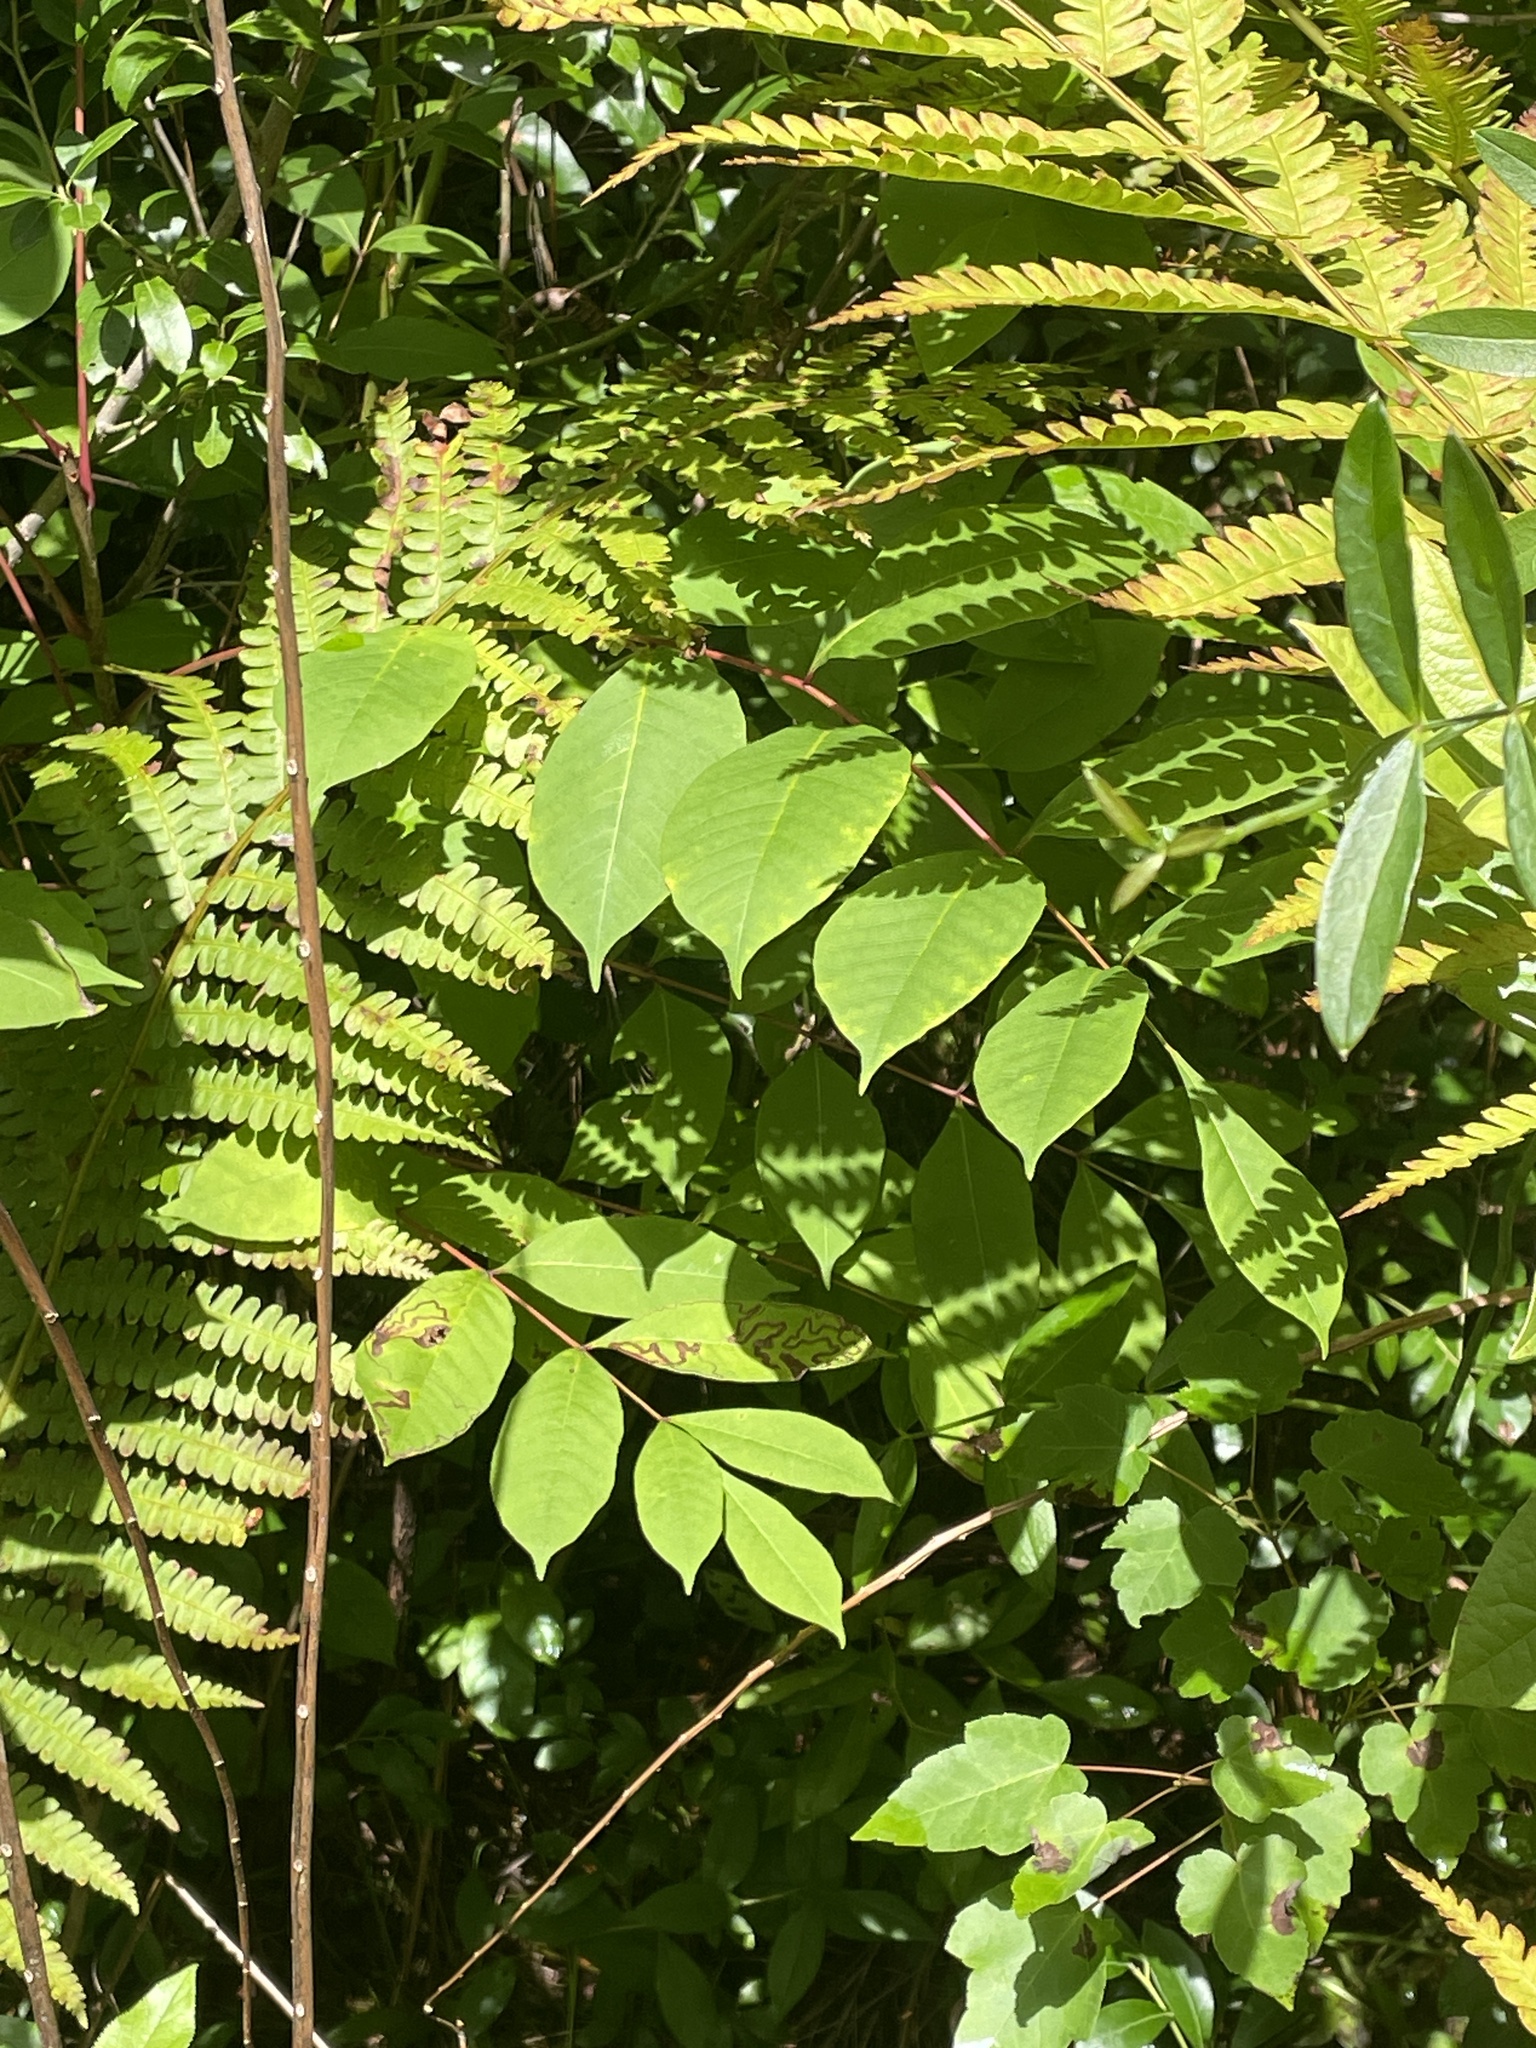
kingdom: Plantae
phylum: Tracheophyta
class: Magnoliopsida
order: Sapindales
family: Anacardiaceae
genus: Toxicodendron
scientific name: Toxicodendron vernix
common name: Poison sumac
